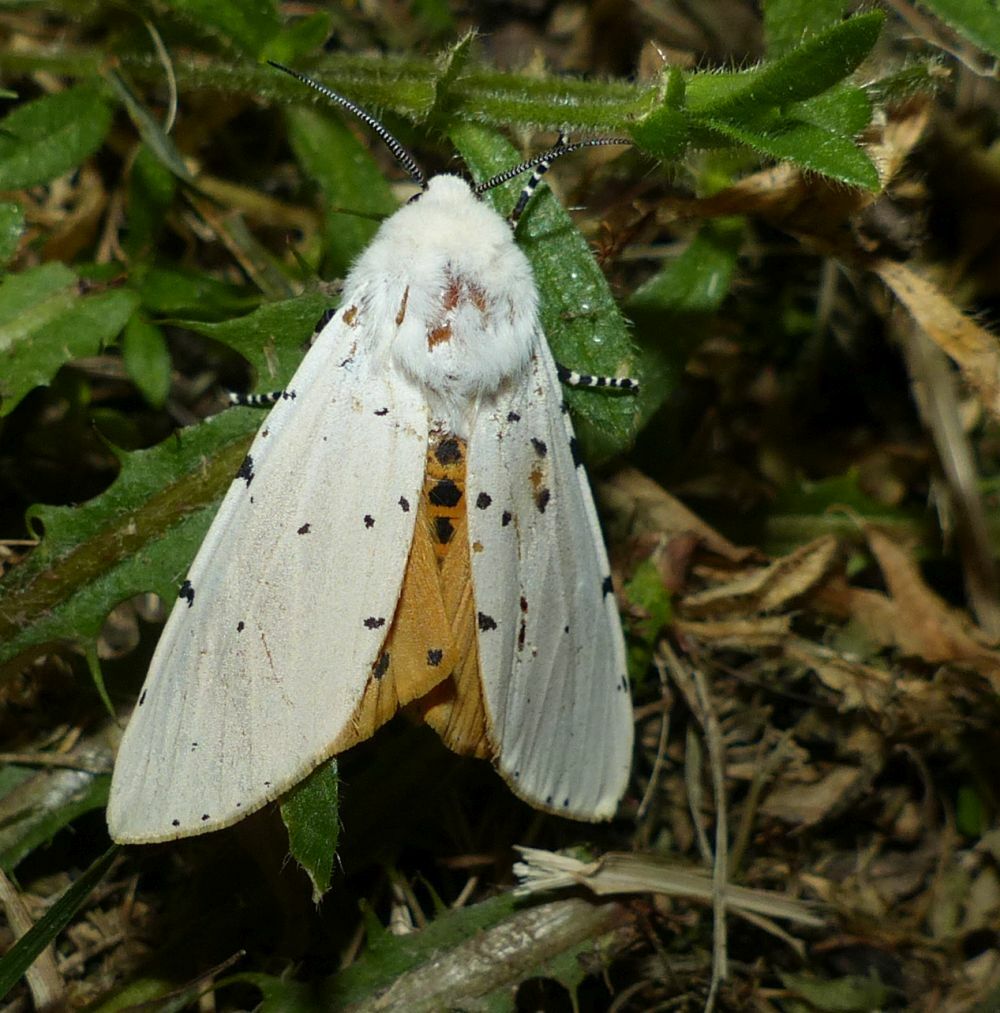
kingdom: Animalia
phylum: Arthropoda
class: Insecta
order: Lepidoptera
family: Erebidae
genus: Estigmene
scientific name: Estigmene acrea
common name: Salt marsh moth
